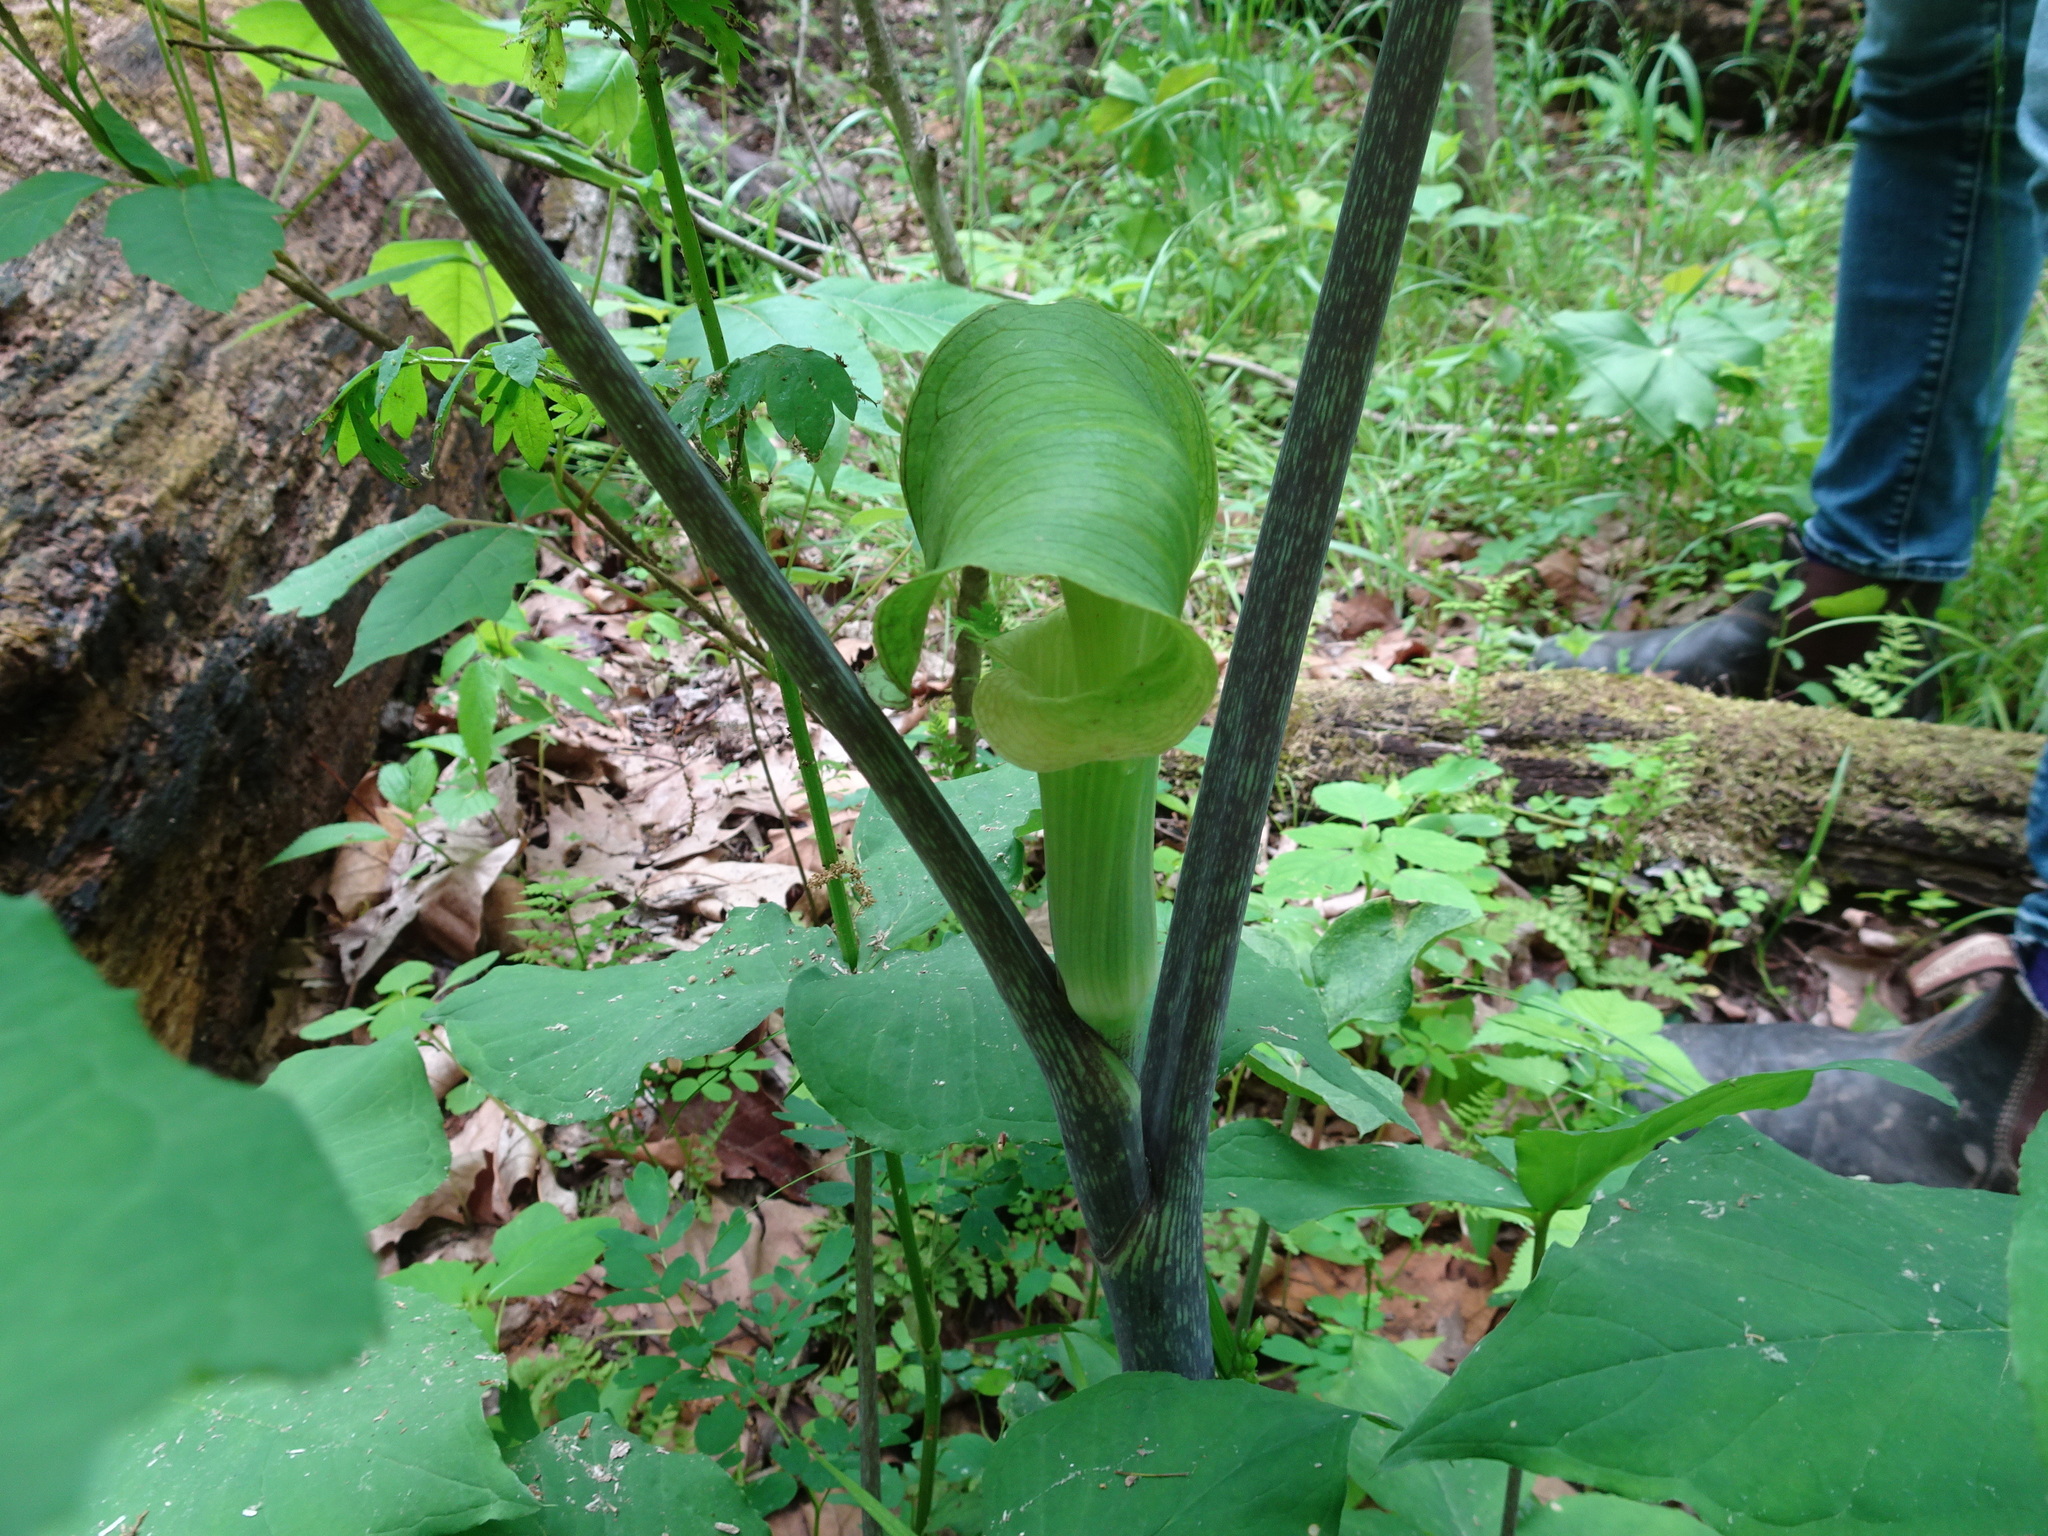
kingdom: Plantae
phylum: Tracheophyta
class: Liliopsida
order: Alismatales
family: Araceae
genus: Arisaema
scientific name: Arisaema triphyllum
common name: Jack-in-the-pulpit
